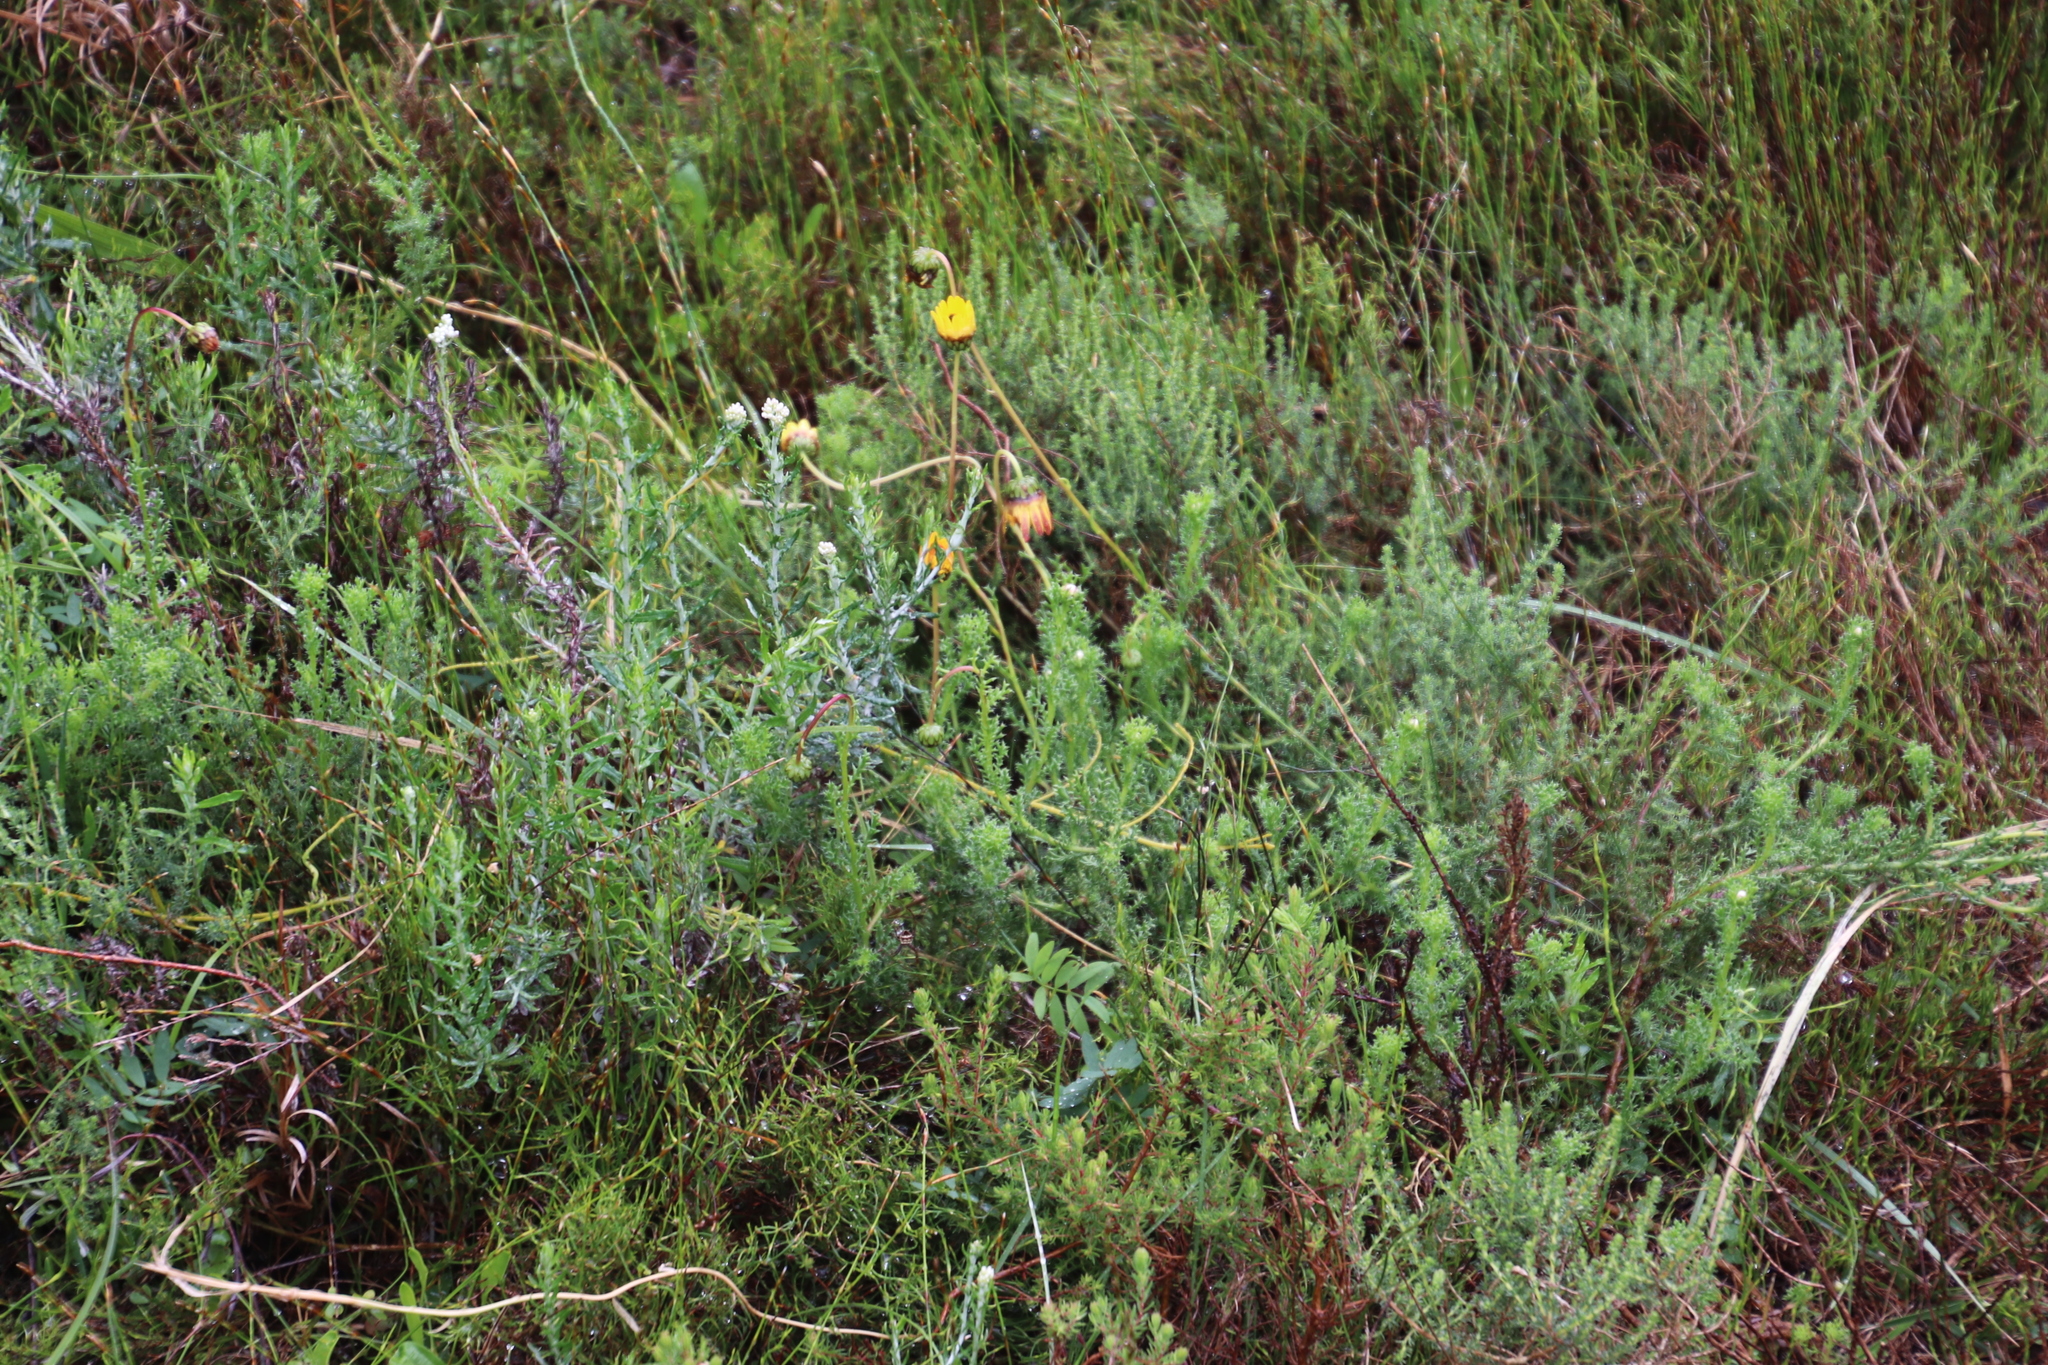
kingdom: Plantae
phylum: Tracheophyta
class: Magnoliopsida
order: Asterales
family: Asteraceae
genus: Ursinia
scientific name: Ursinia dentata
